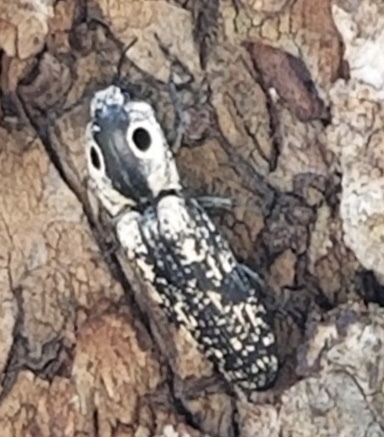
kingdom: Animalia
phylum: Arthropoda
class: Insecta
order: Coleoptera
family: Elateridae
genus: Alaus
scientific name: Alaus
